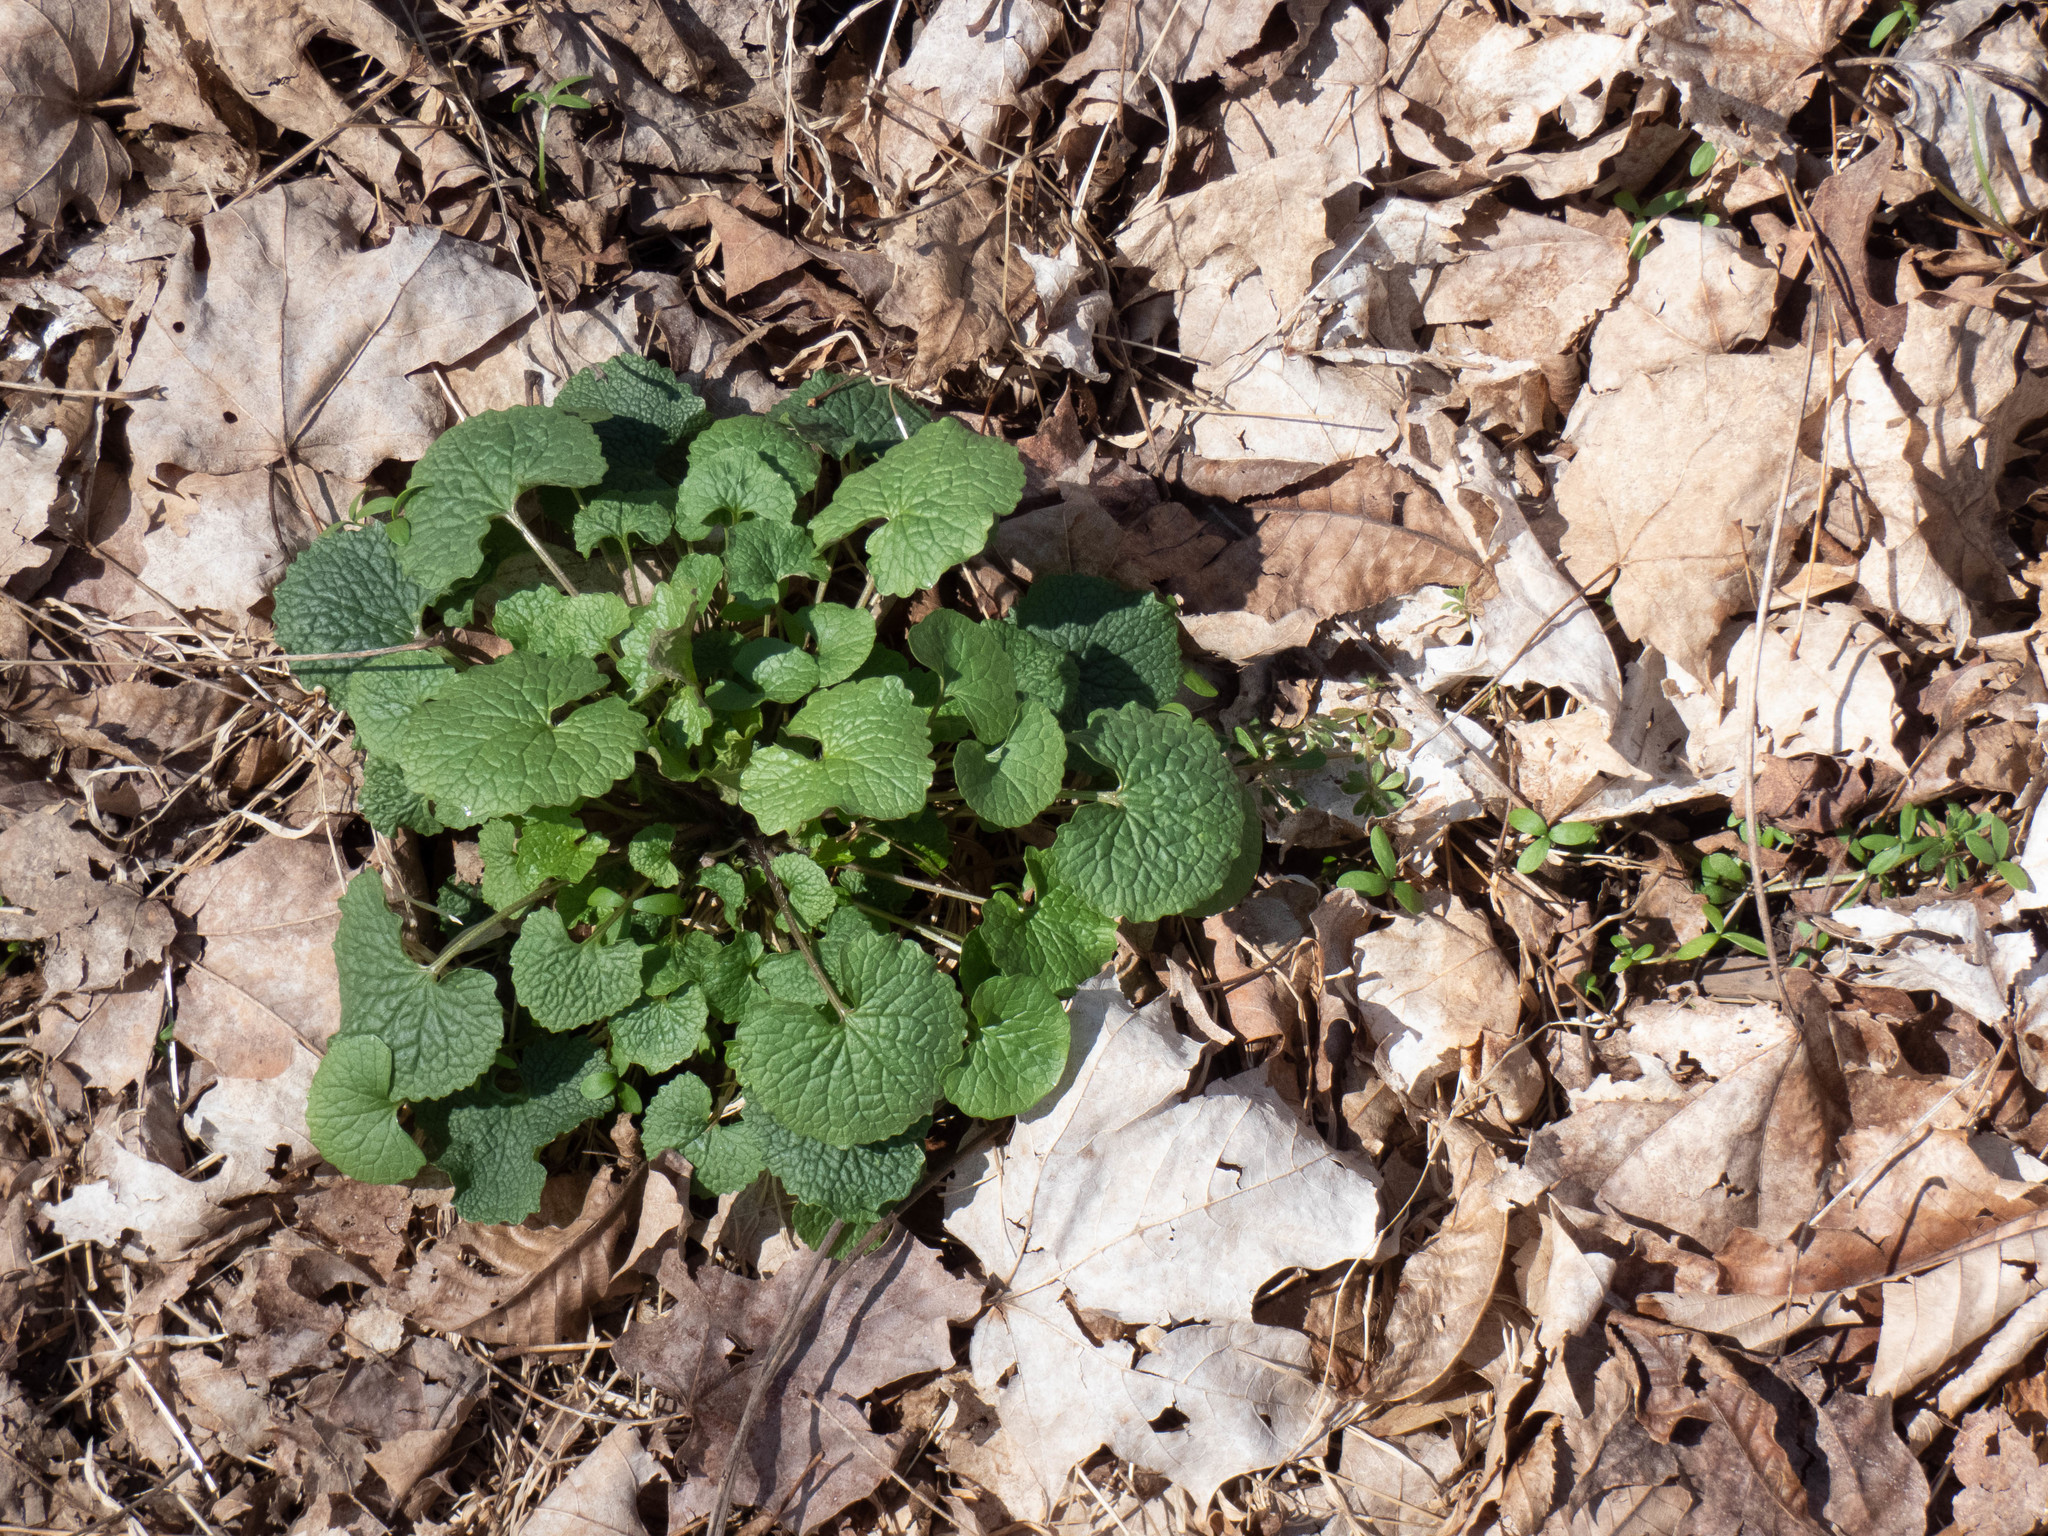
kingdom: Plantae
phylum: Tracheophyta
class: Magnoliopsida
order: Brassicales
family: Brassicaceae
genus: Alliaria
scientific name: Alliaria petiolata
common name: Garlic mustard
